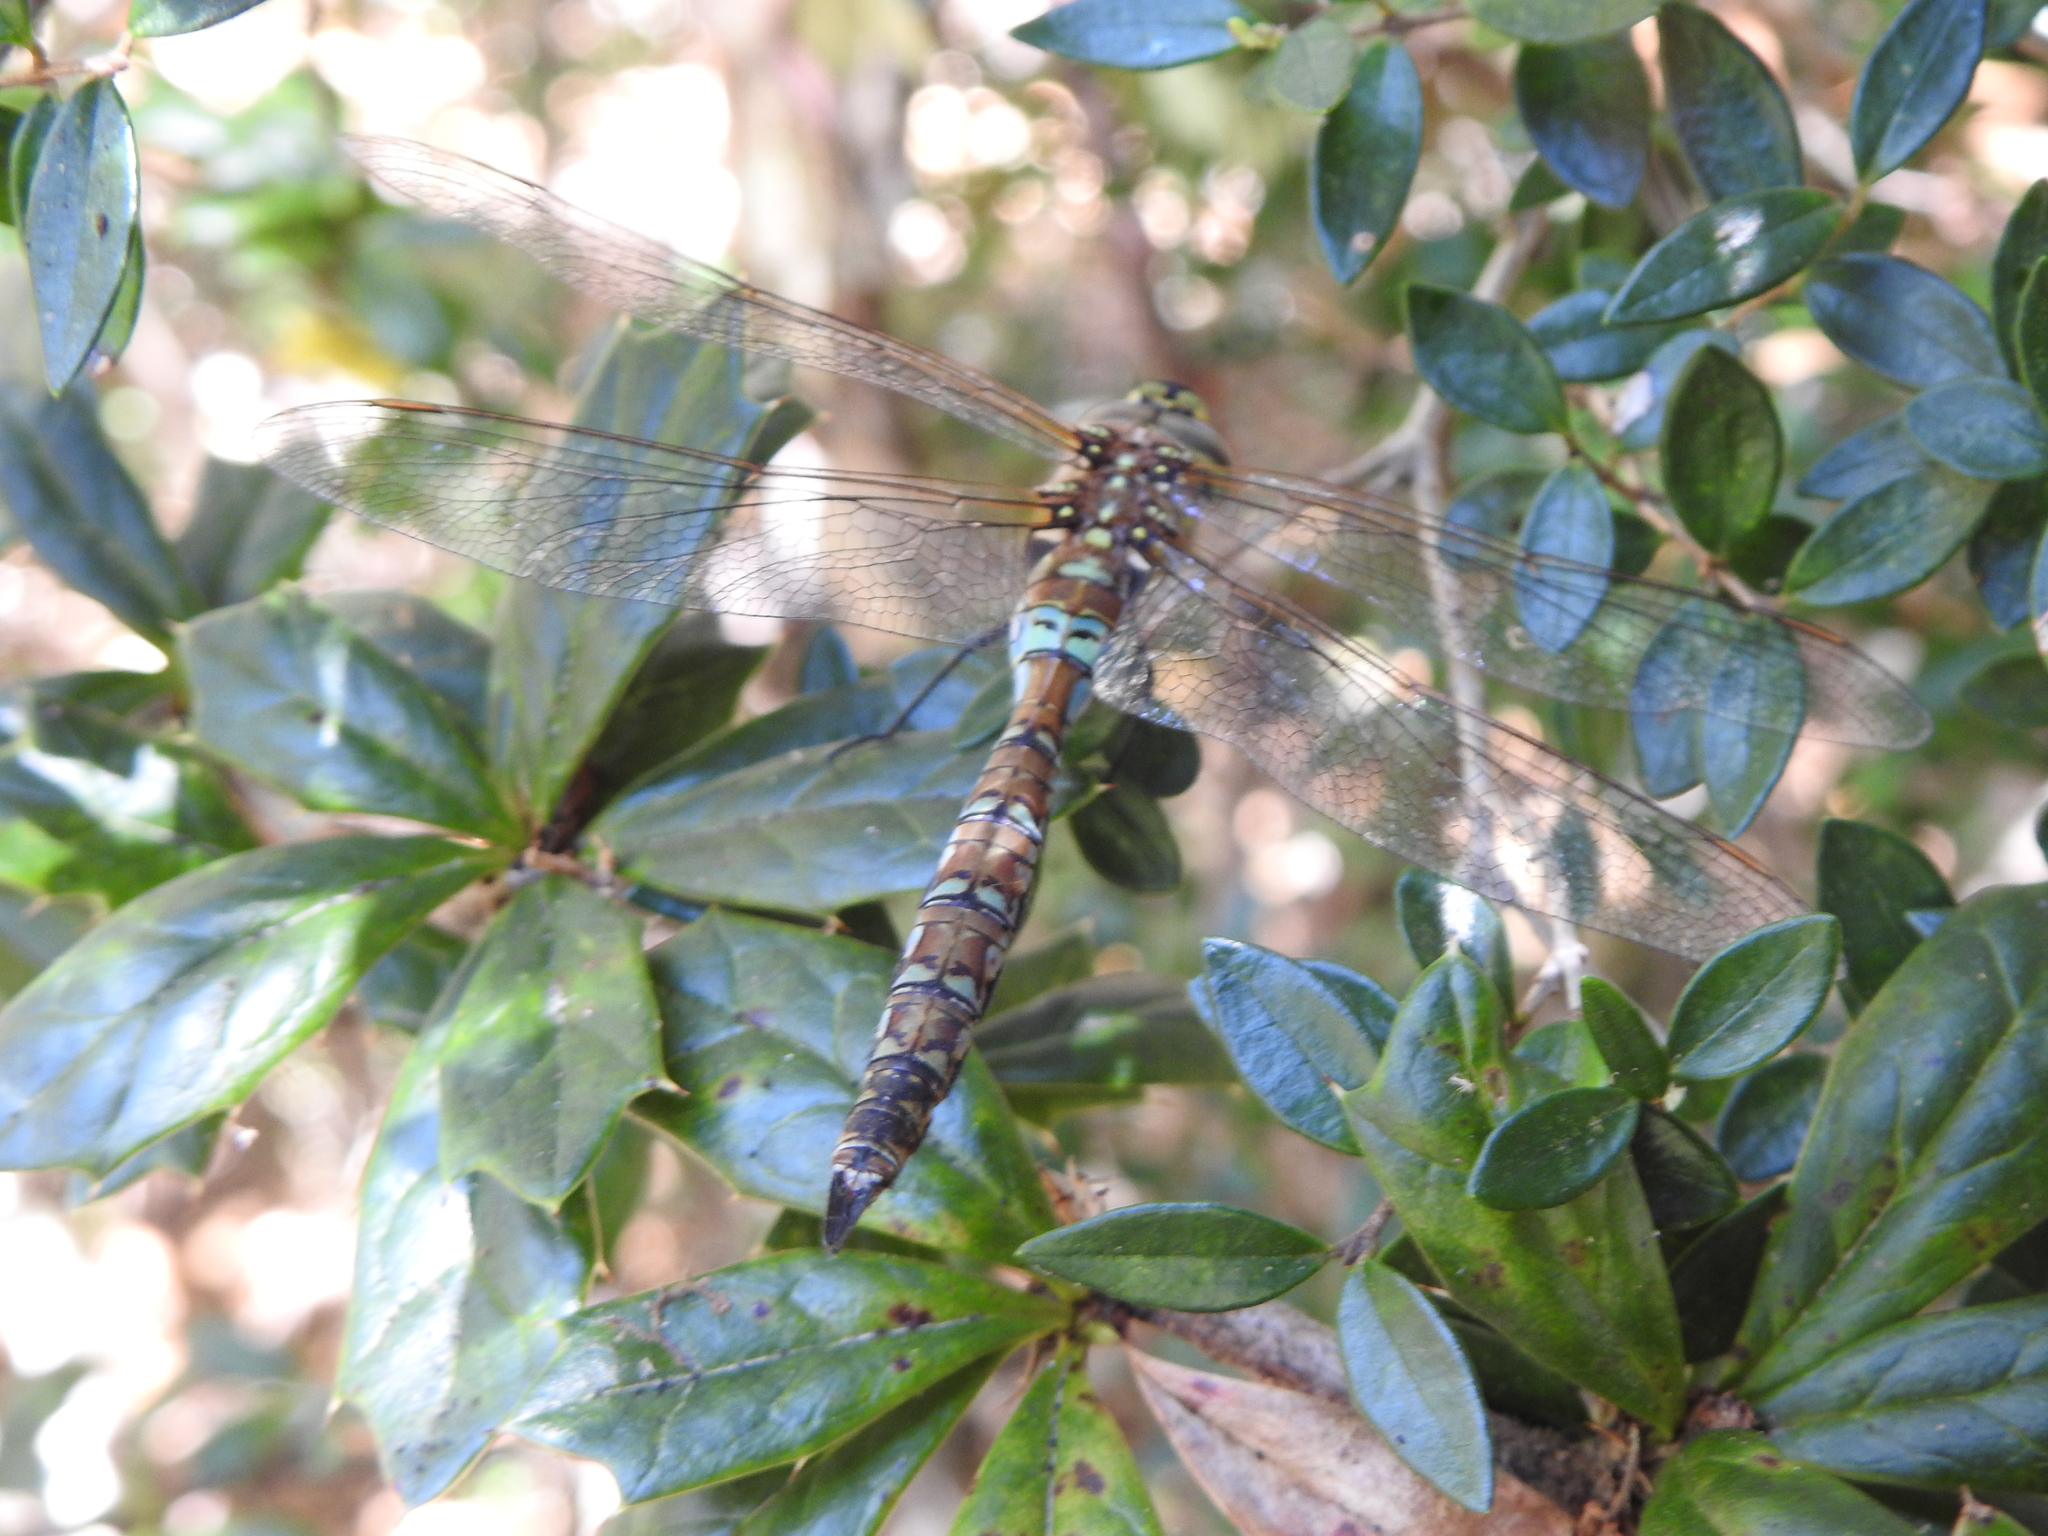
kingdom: Animalia
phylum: Arthropoda
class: Insecta
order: Odonata
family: Aeshnidae
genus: Rhionaeschna
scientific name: Rhionaeschna diffinis
